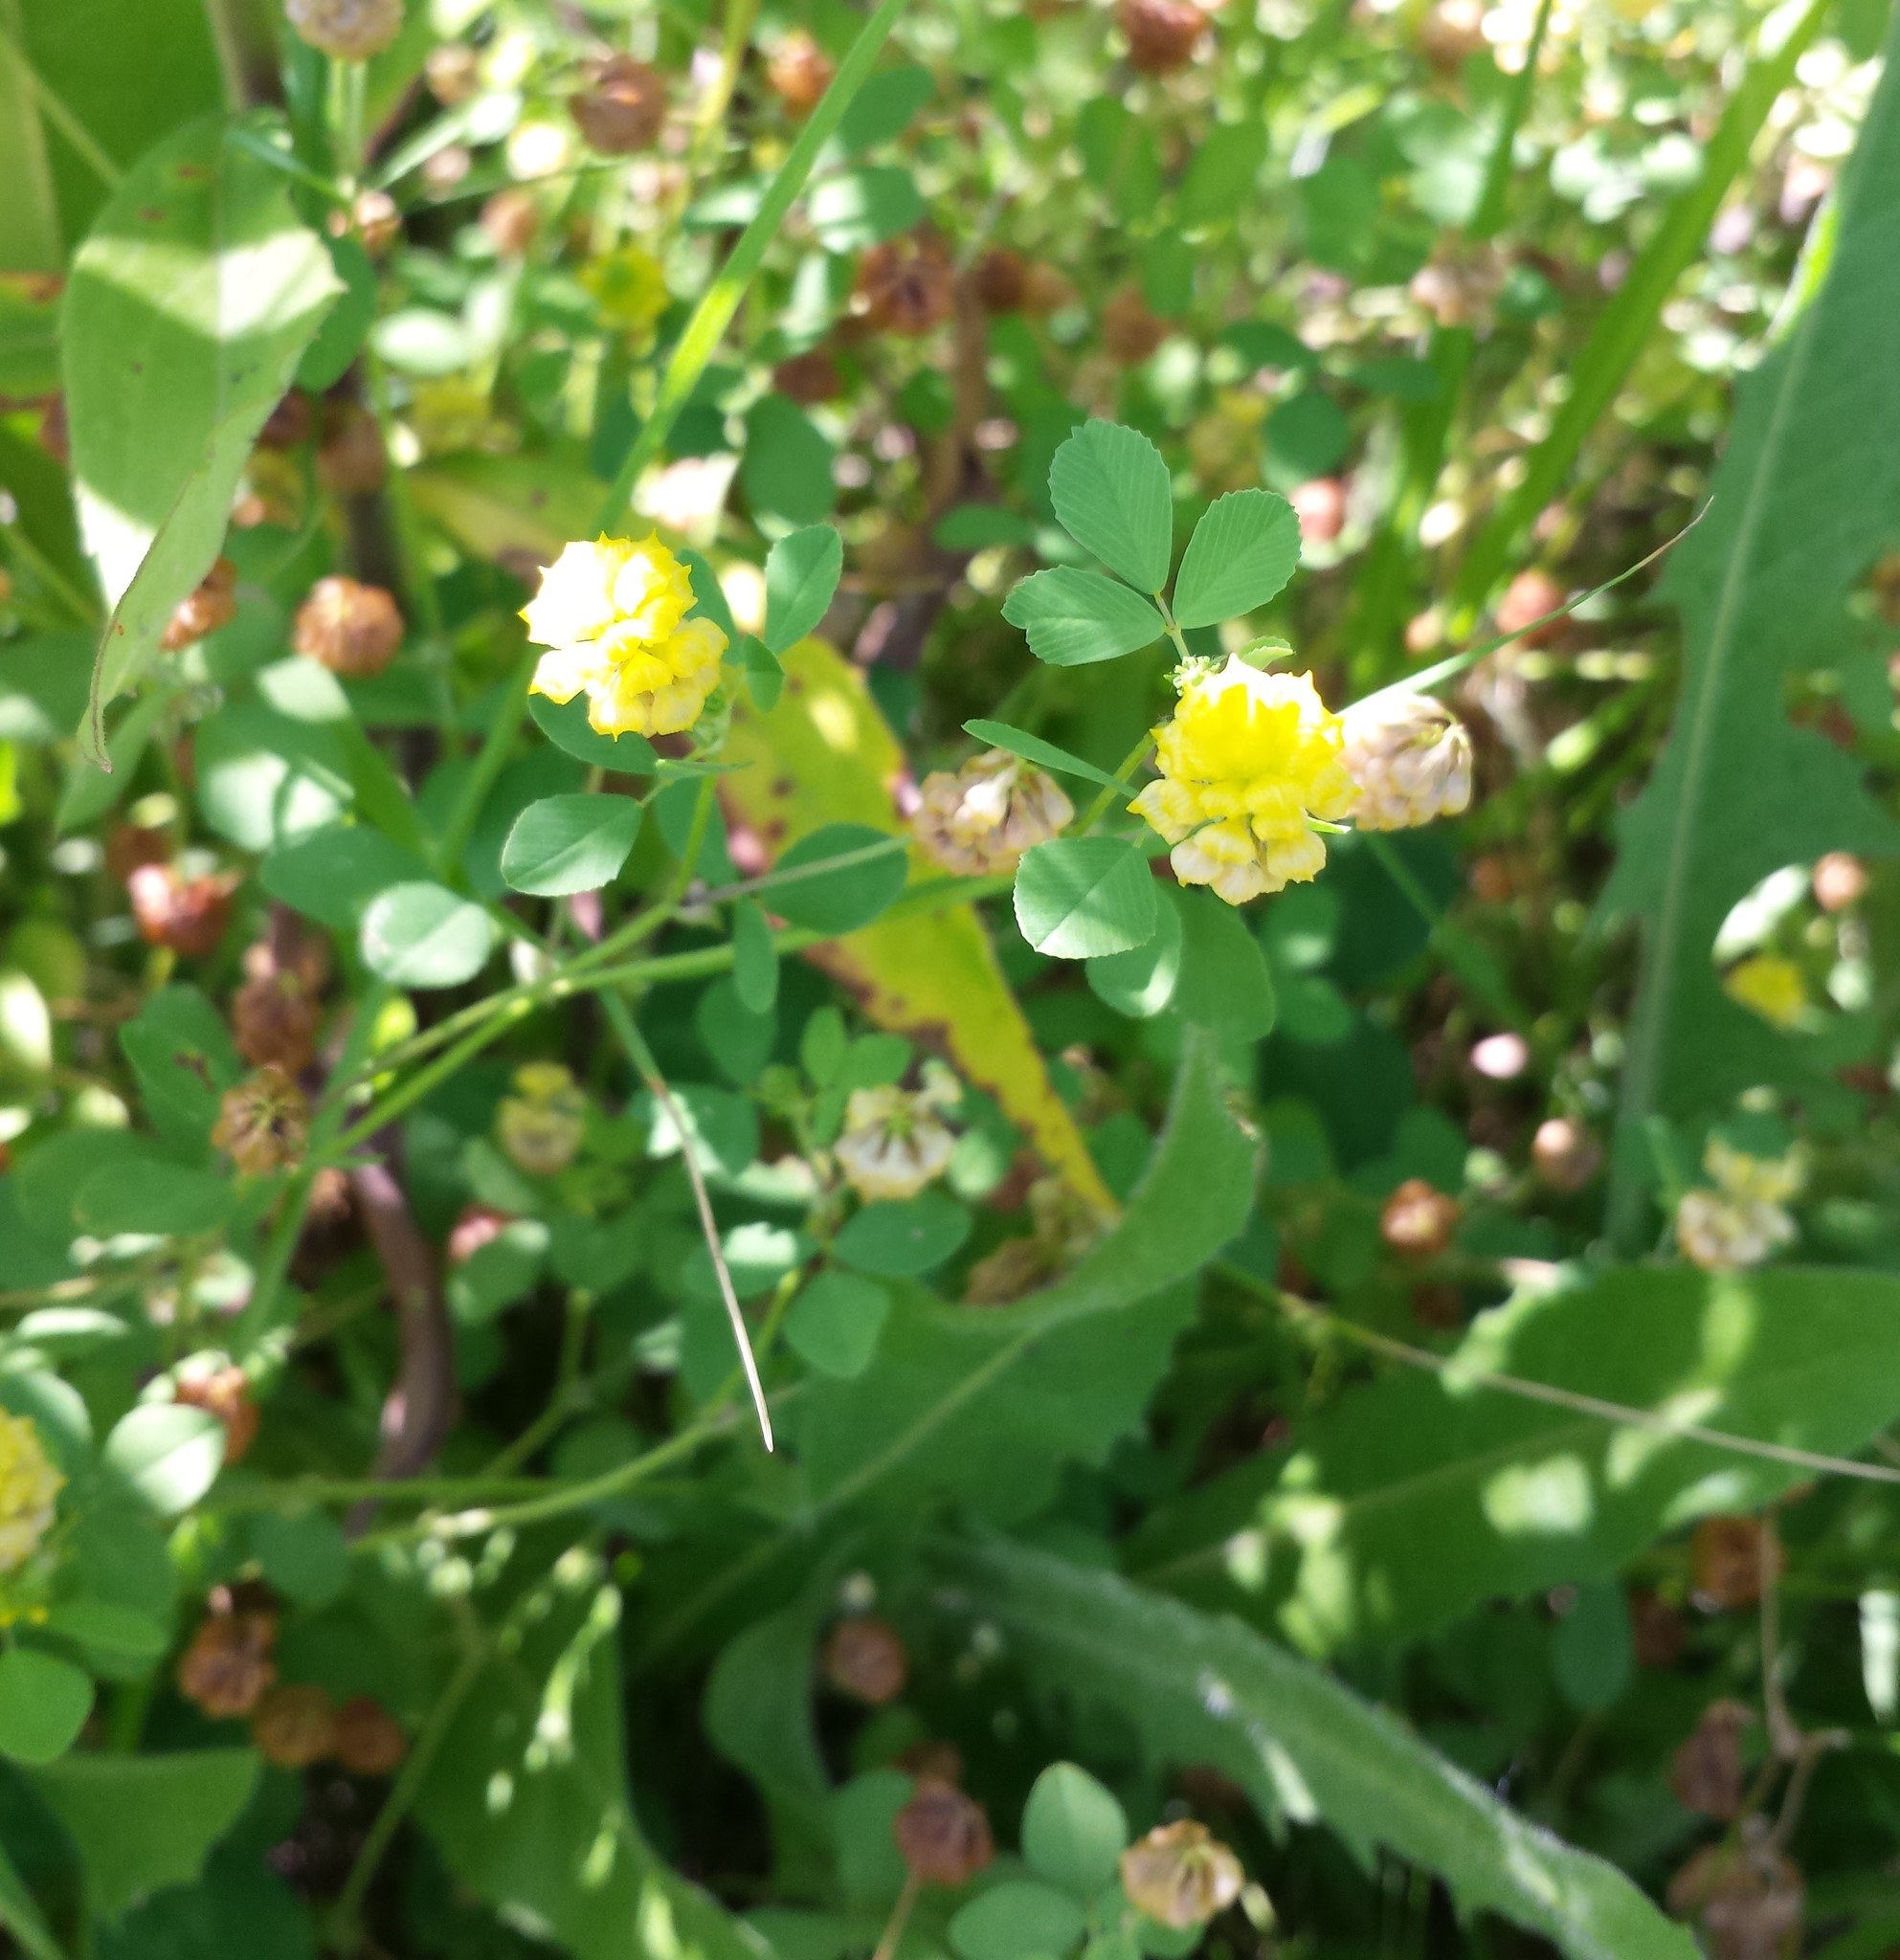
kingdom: Plantae
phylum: Tracheophyta
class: Magnoliopsida
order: Fabales
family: Fabaceae
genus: Trifolium
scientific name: Trifolium campestre
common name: Field clover
